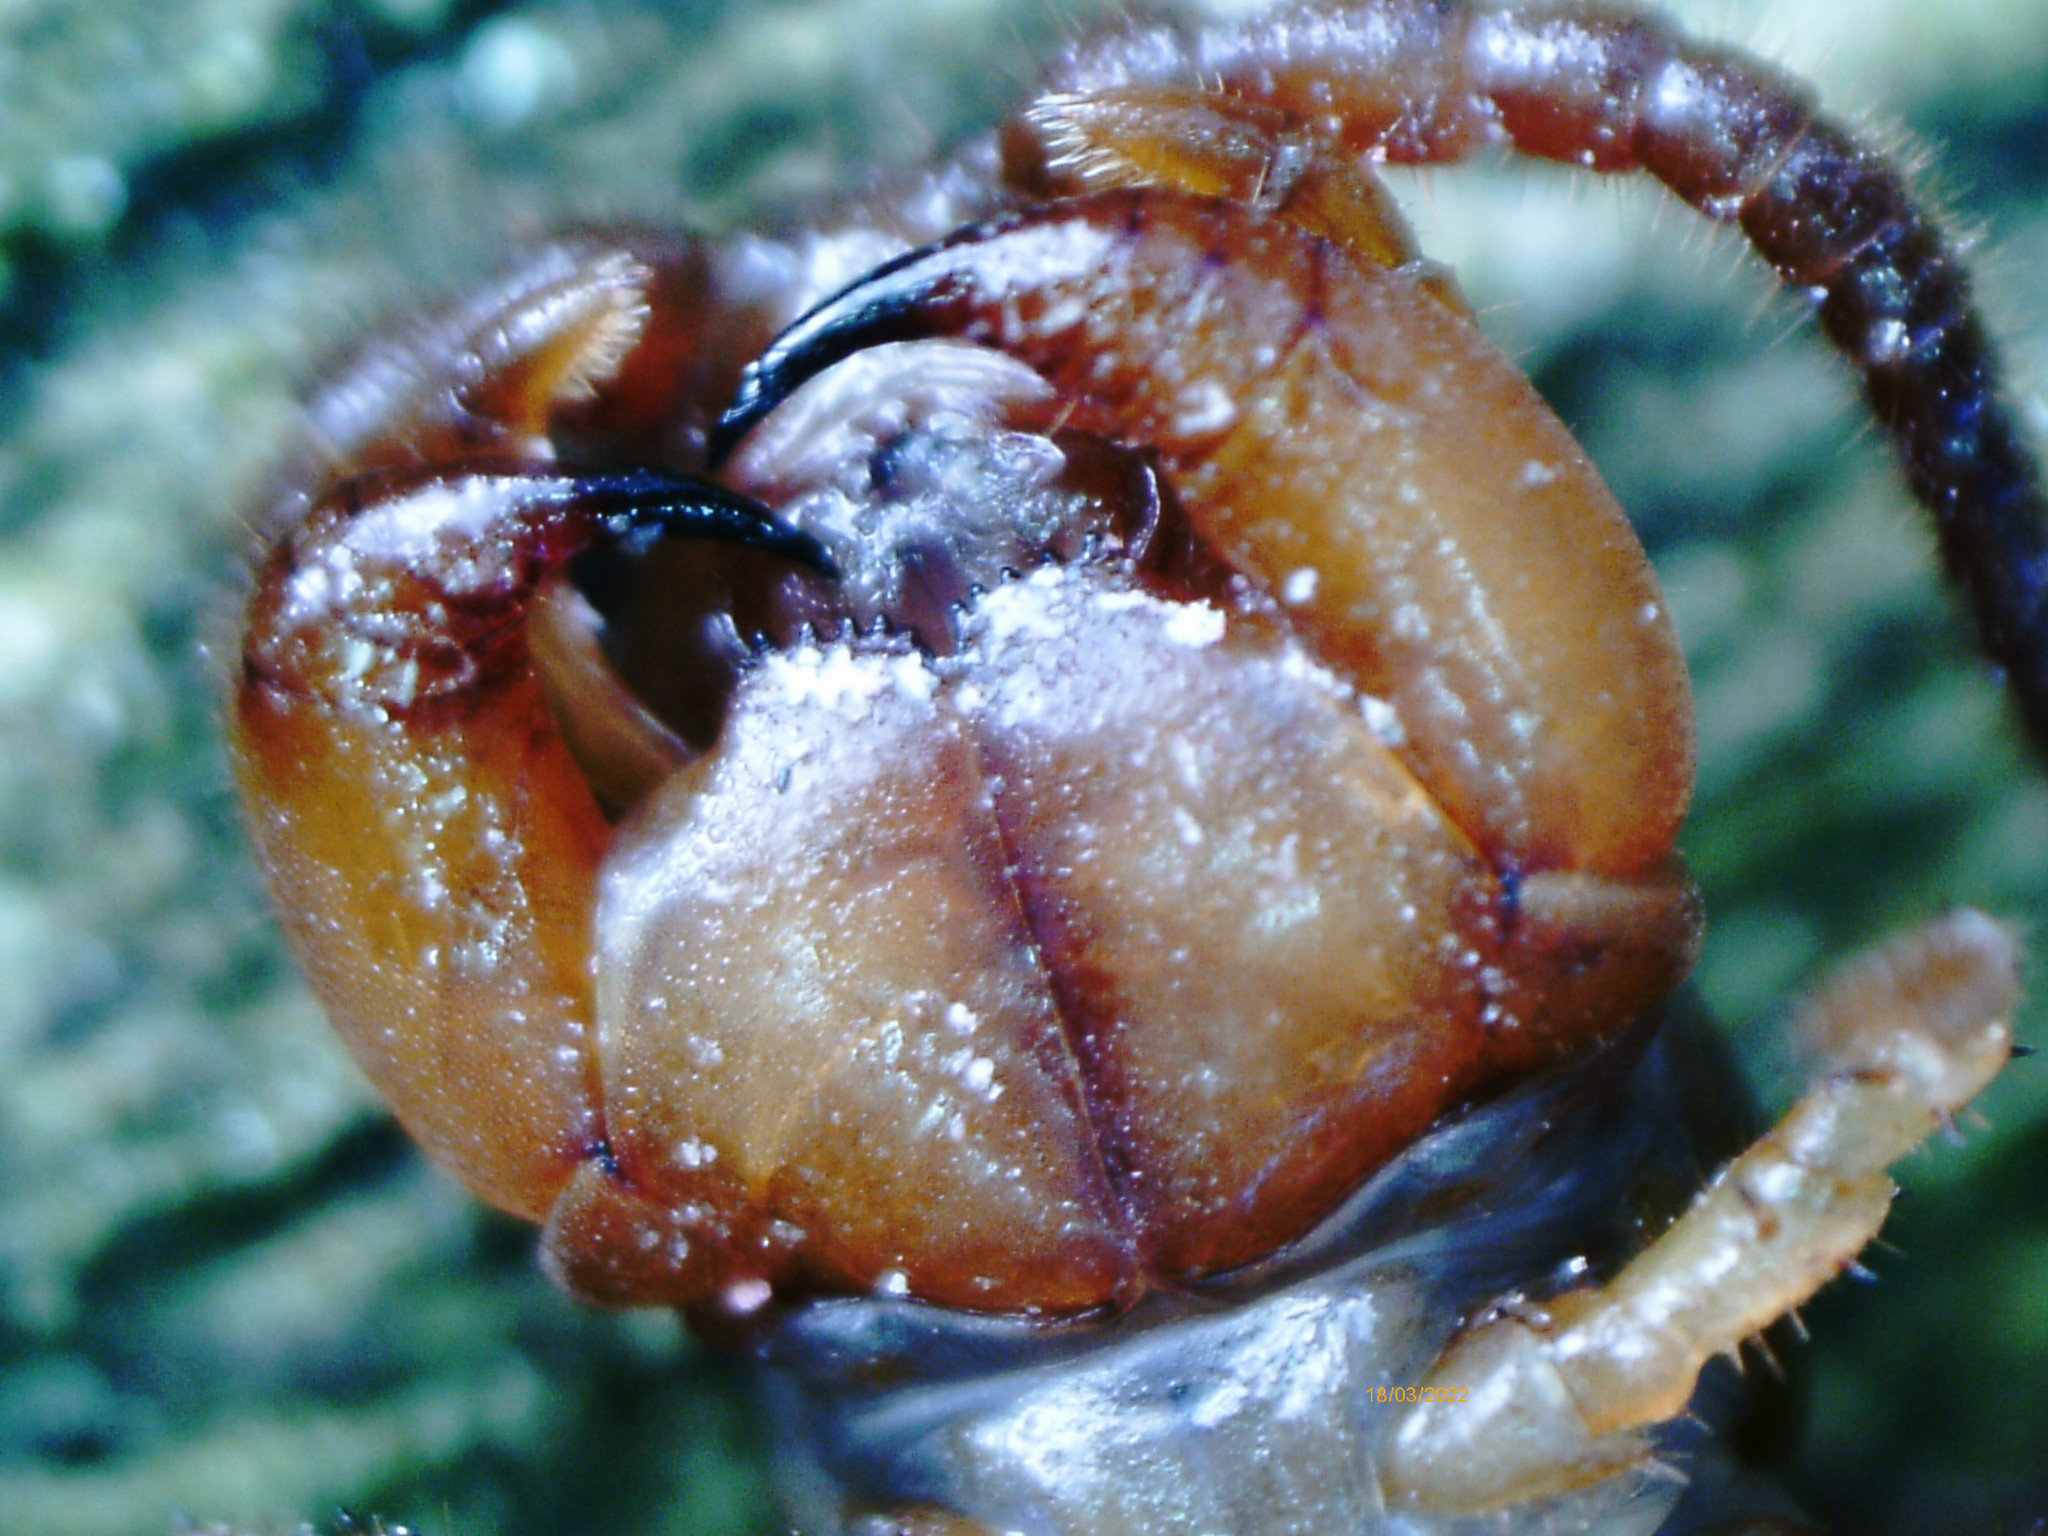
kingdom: Animalia
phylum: Arthropoda
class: Chilopoda
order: Lithobiomorpha
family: Lithobiidae
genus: Lithobius
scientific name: Lithobius forficatus
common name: Centipede
